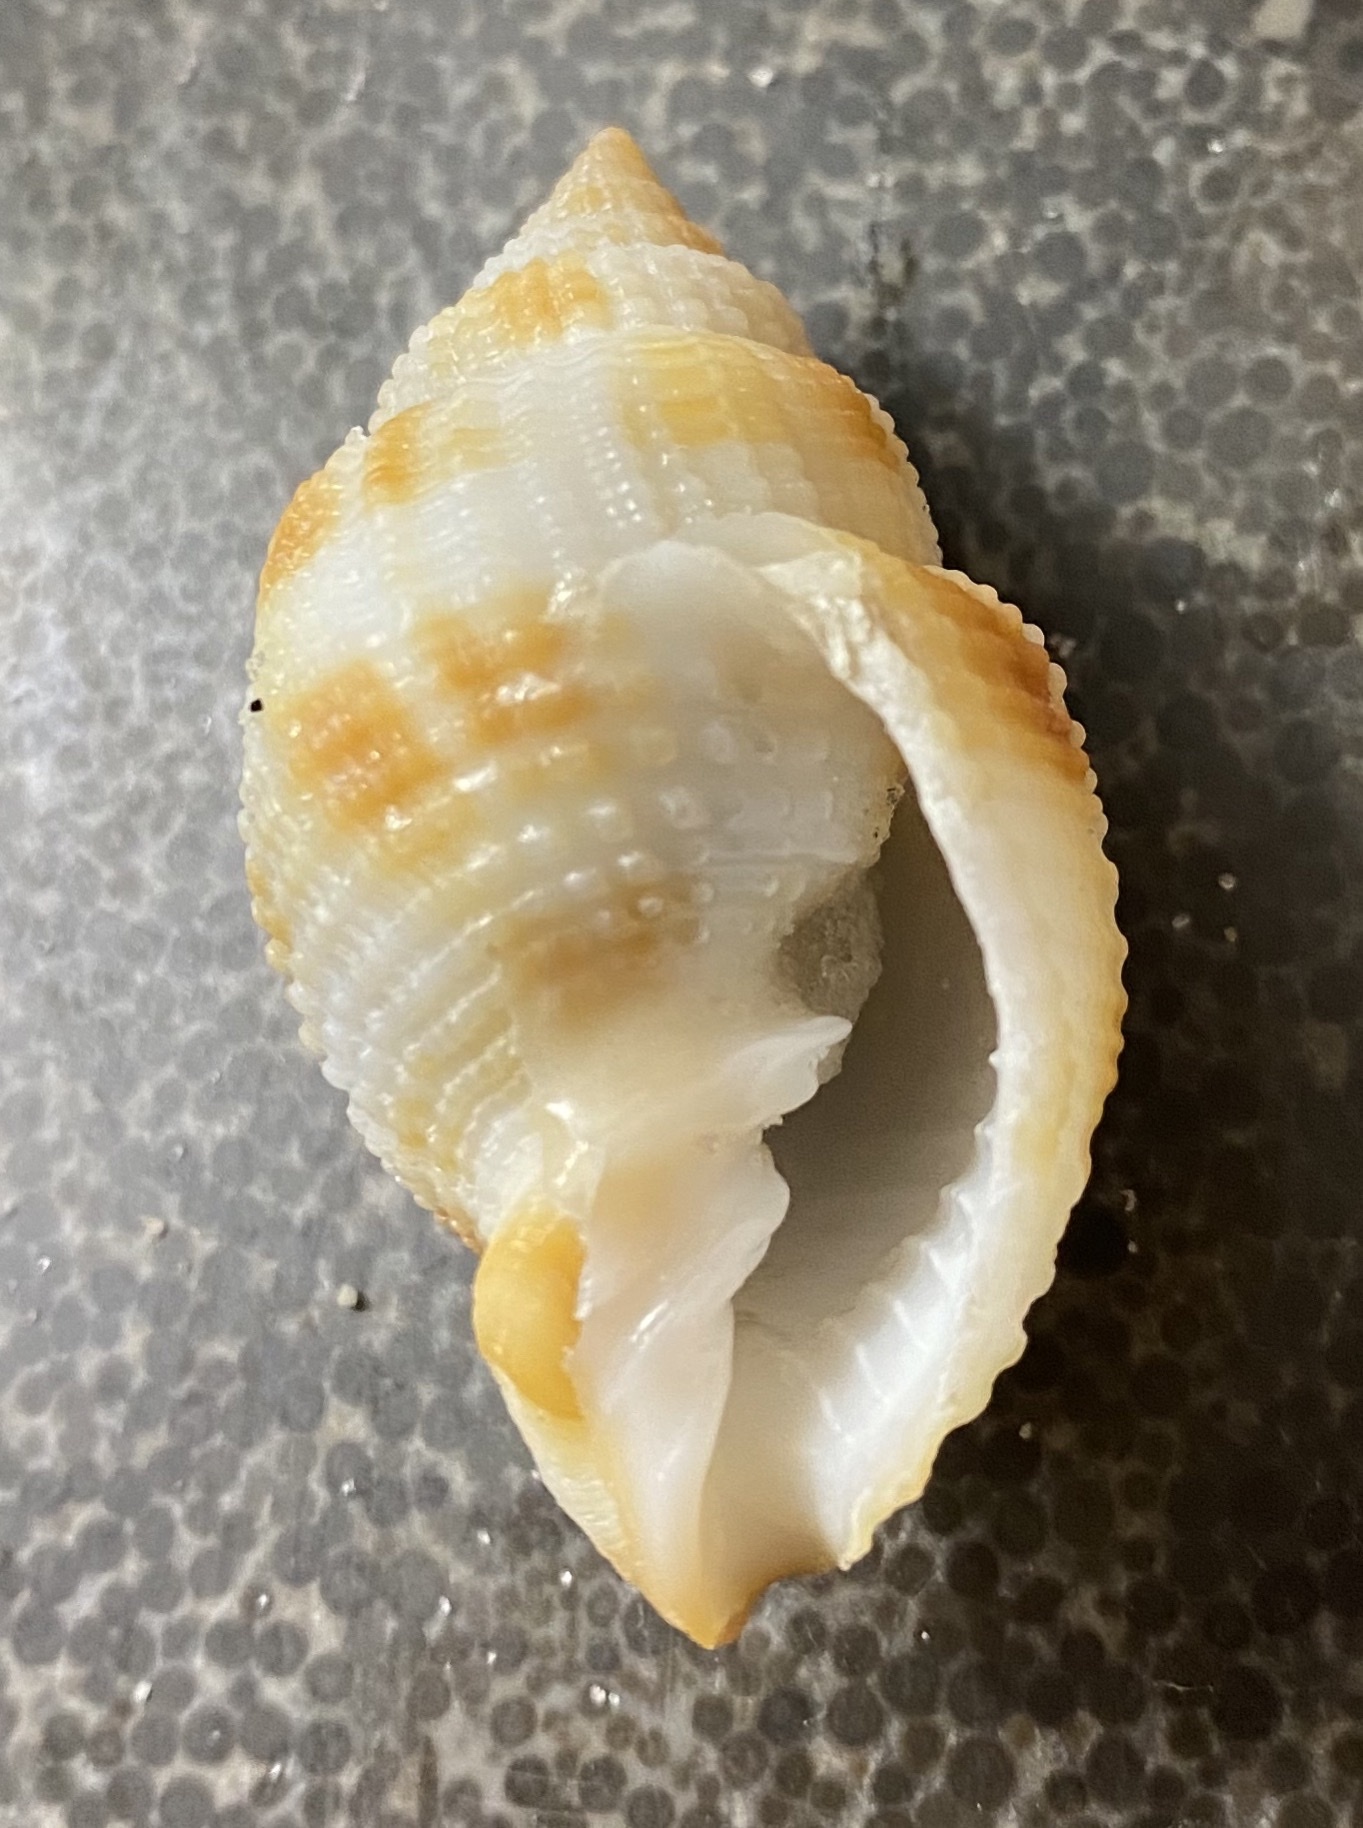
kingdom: Animalia
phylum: Mollusca
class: Gastropoda
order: Neogastropoda
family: Cancellariidae
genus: Cancellaria
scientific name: Cancellaria reticulata
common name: Common nutmeg
